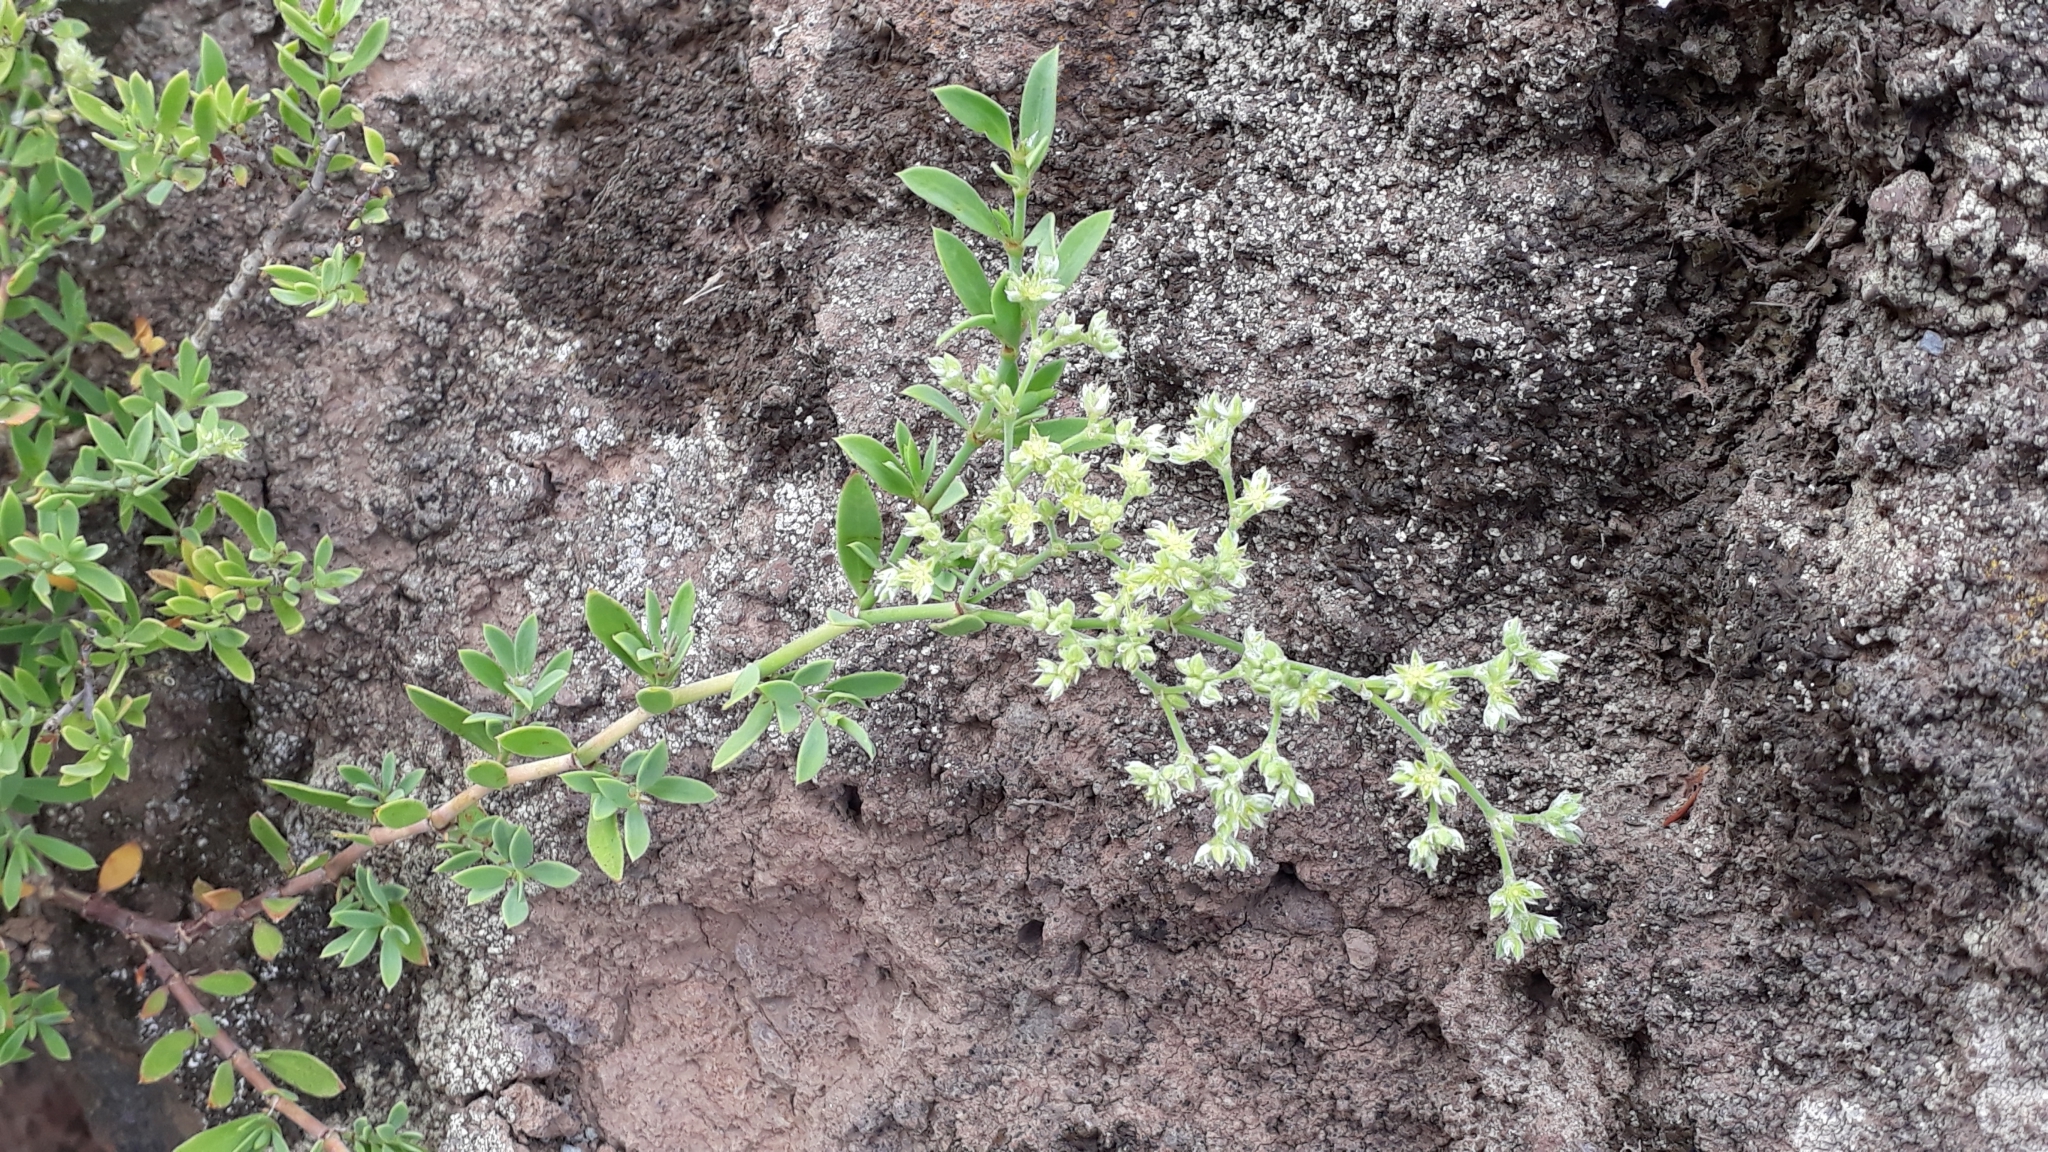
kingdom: Plantae
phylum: Tracheophyta
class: Magnoliopsida
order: Caryophyllales
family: Caryophyllaceae
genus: Paronychia
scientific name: Paronychia canariensis
